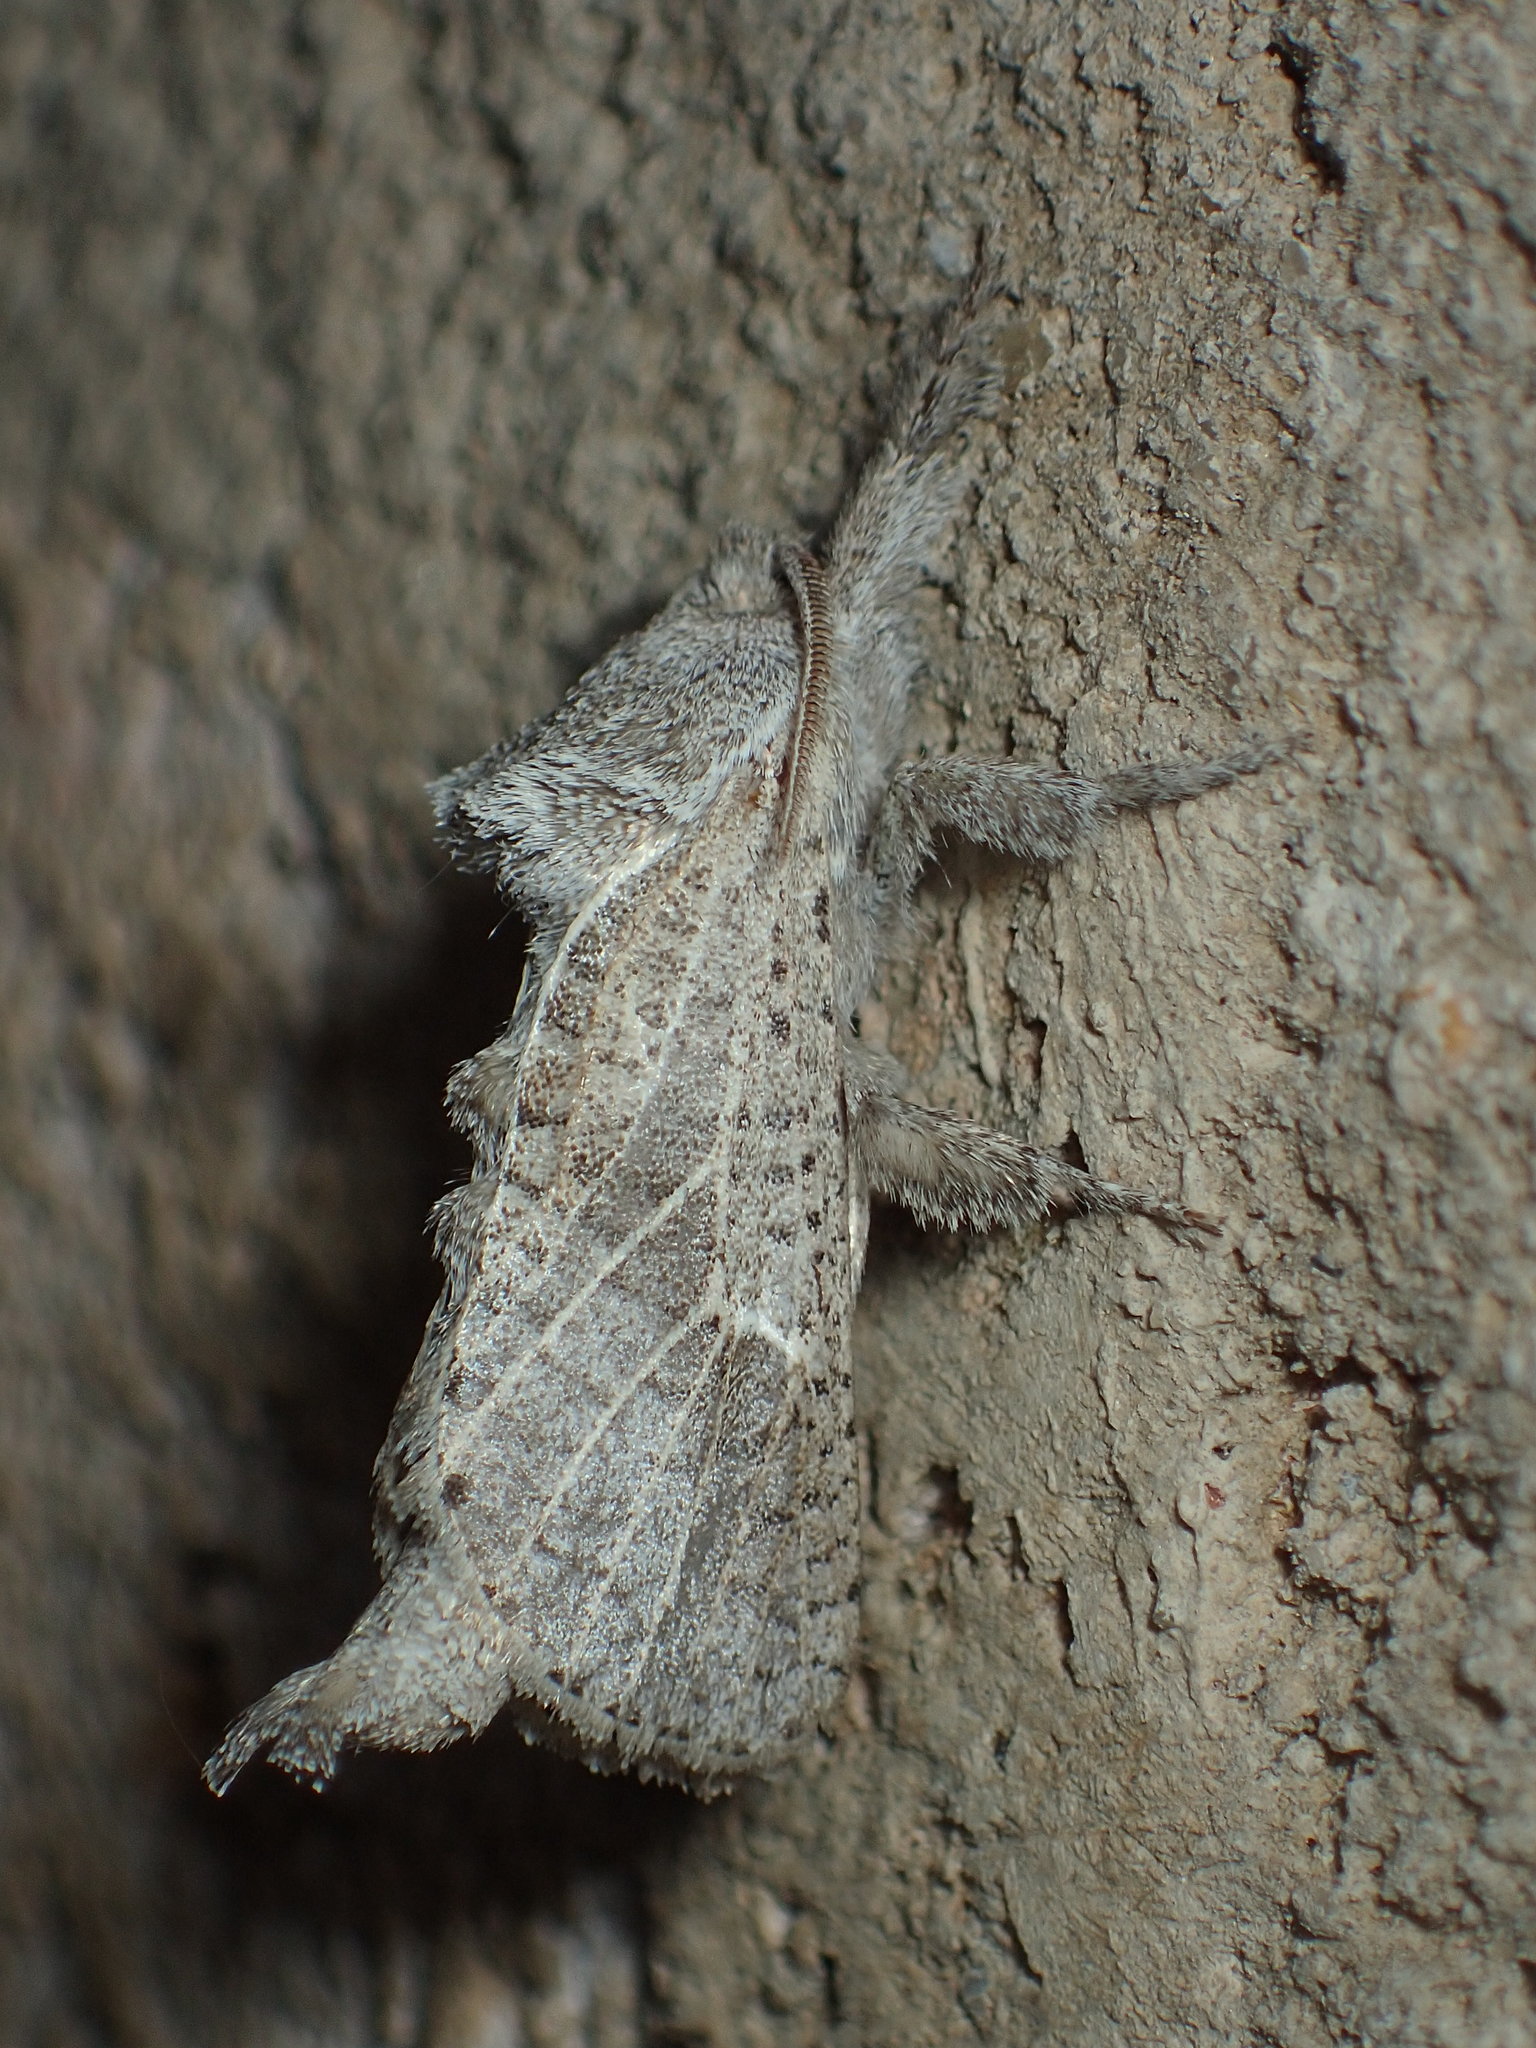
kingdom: Animalia
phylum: Arthropoda
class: Insecta
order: Lepidoptera
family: Cossidae
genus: Givira
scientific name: Givira anna
